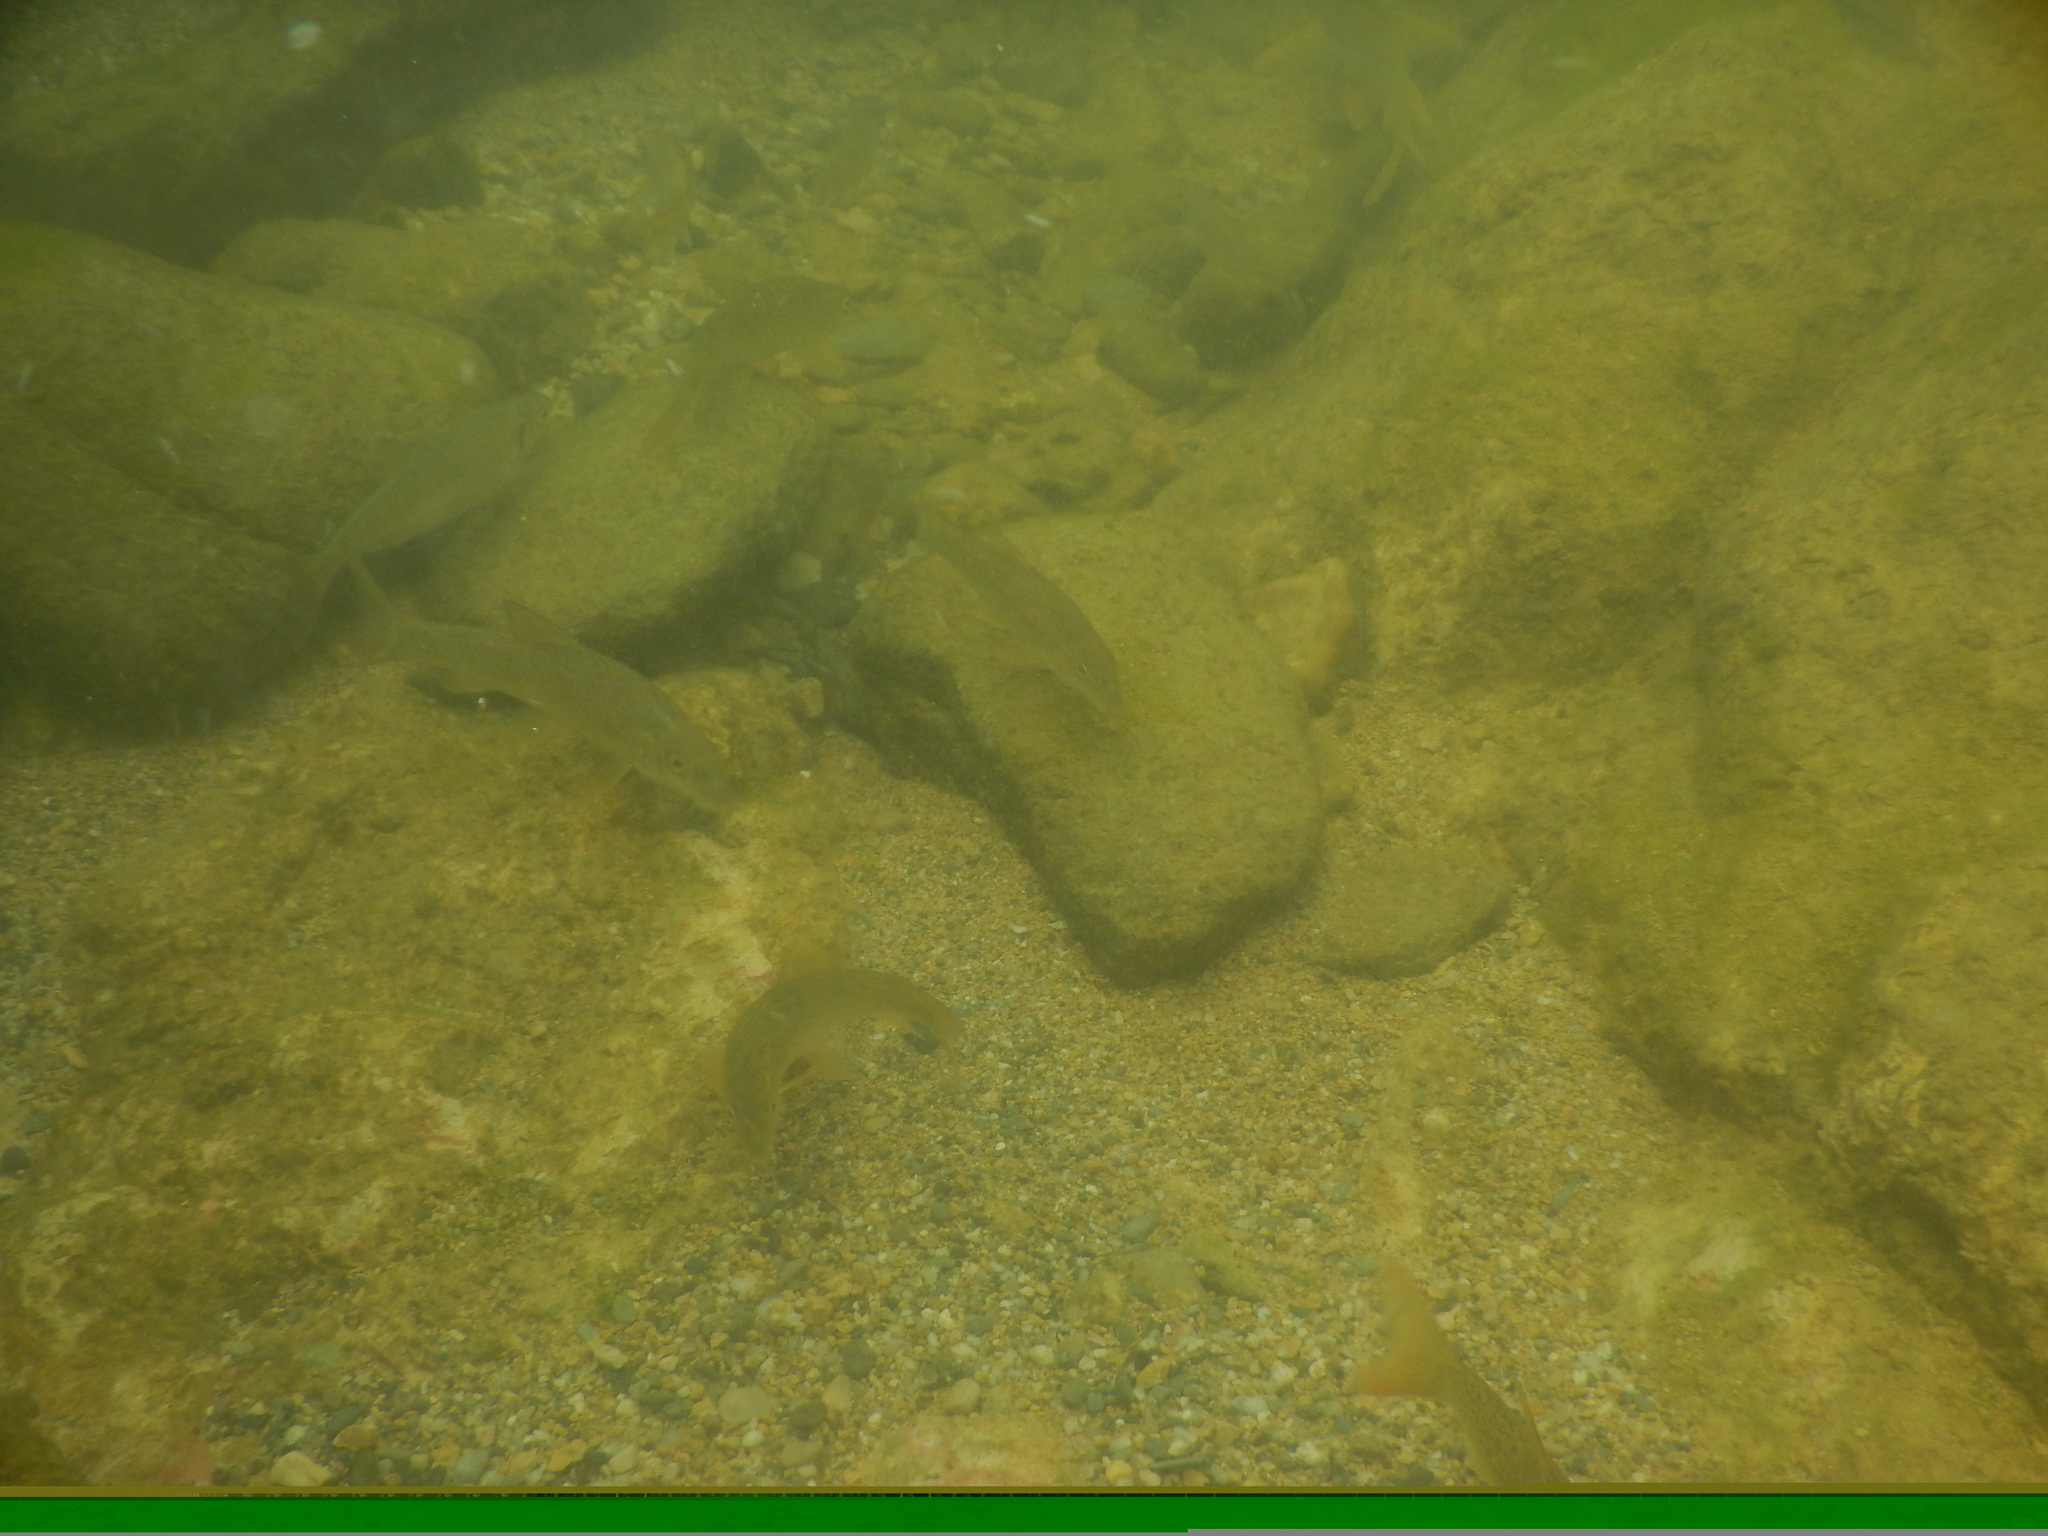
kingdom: Animalia
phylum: Chordata
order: Cypriniformes
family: Cyprinidae
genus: Barbus
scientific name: Barbus barbus
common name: Barbel
